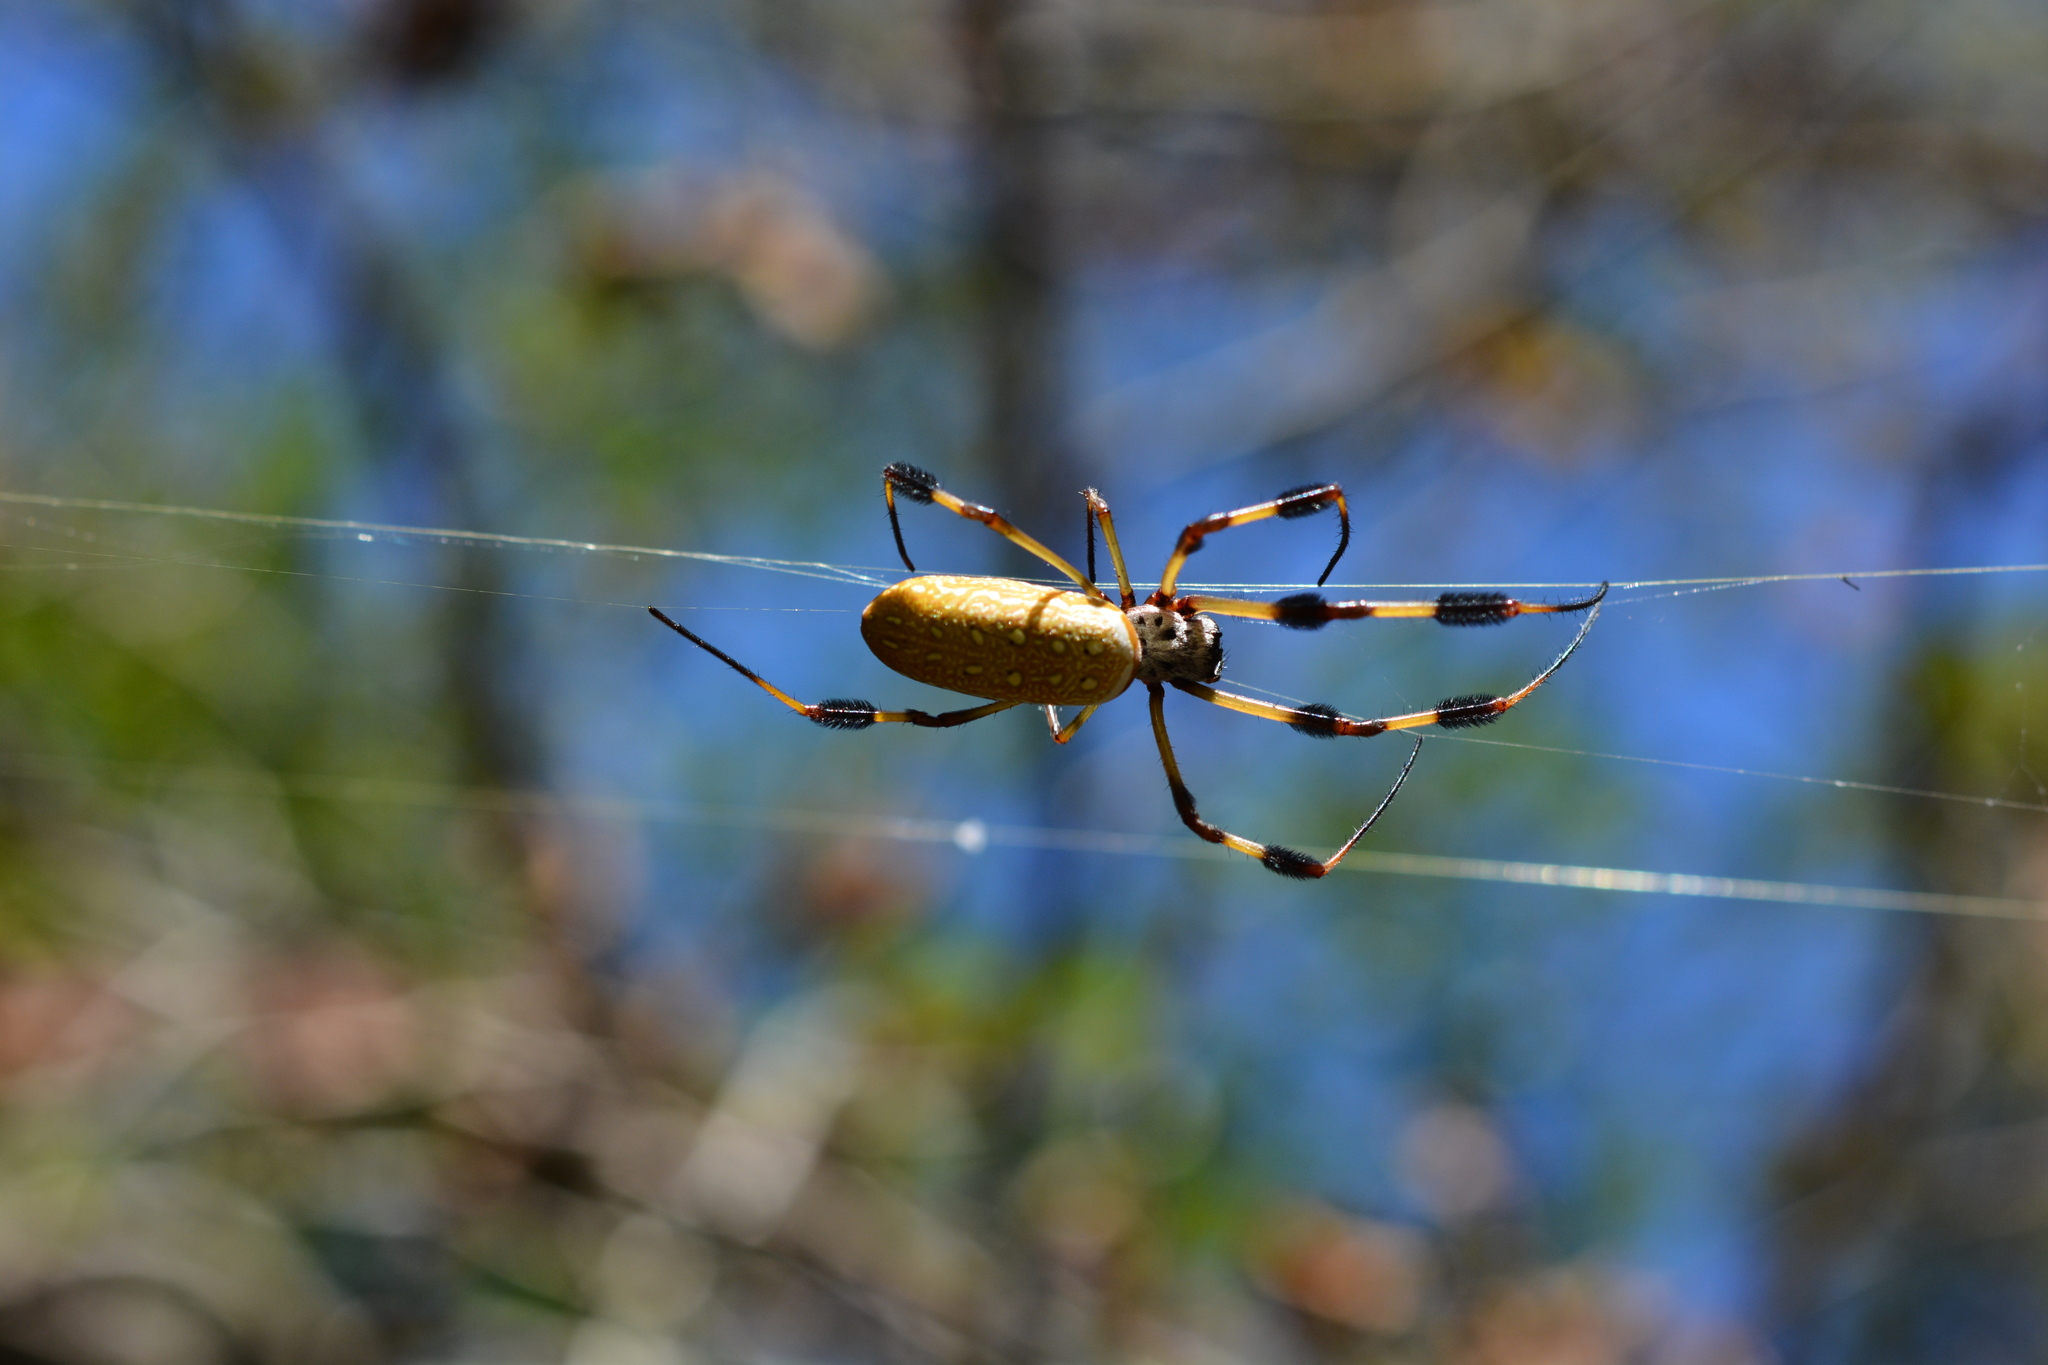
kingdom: Animalia
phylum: Arthropoda
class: Arachnida
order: Araneae
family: Araneidae
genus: Trichonephila
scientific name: Trichonephila clavipes
